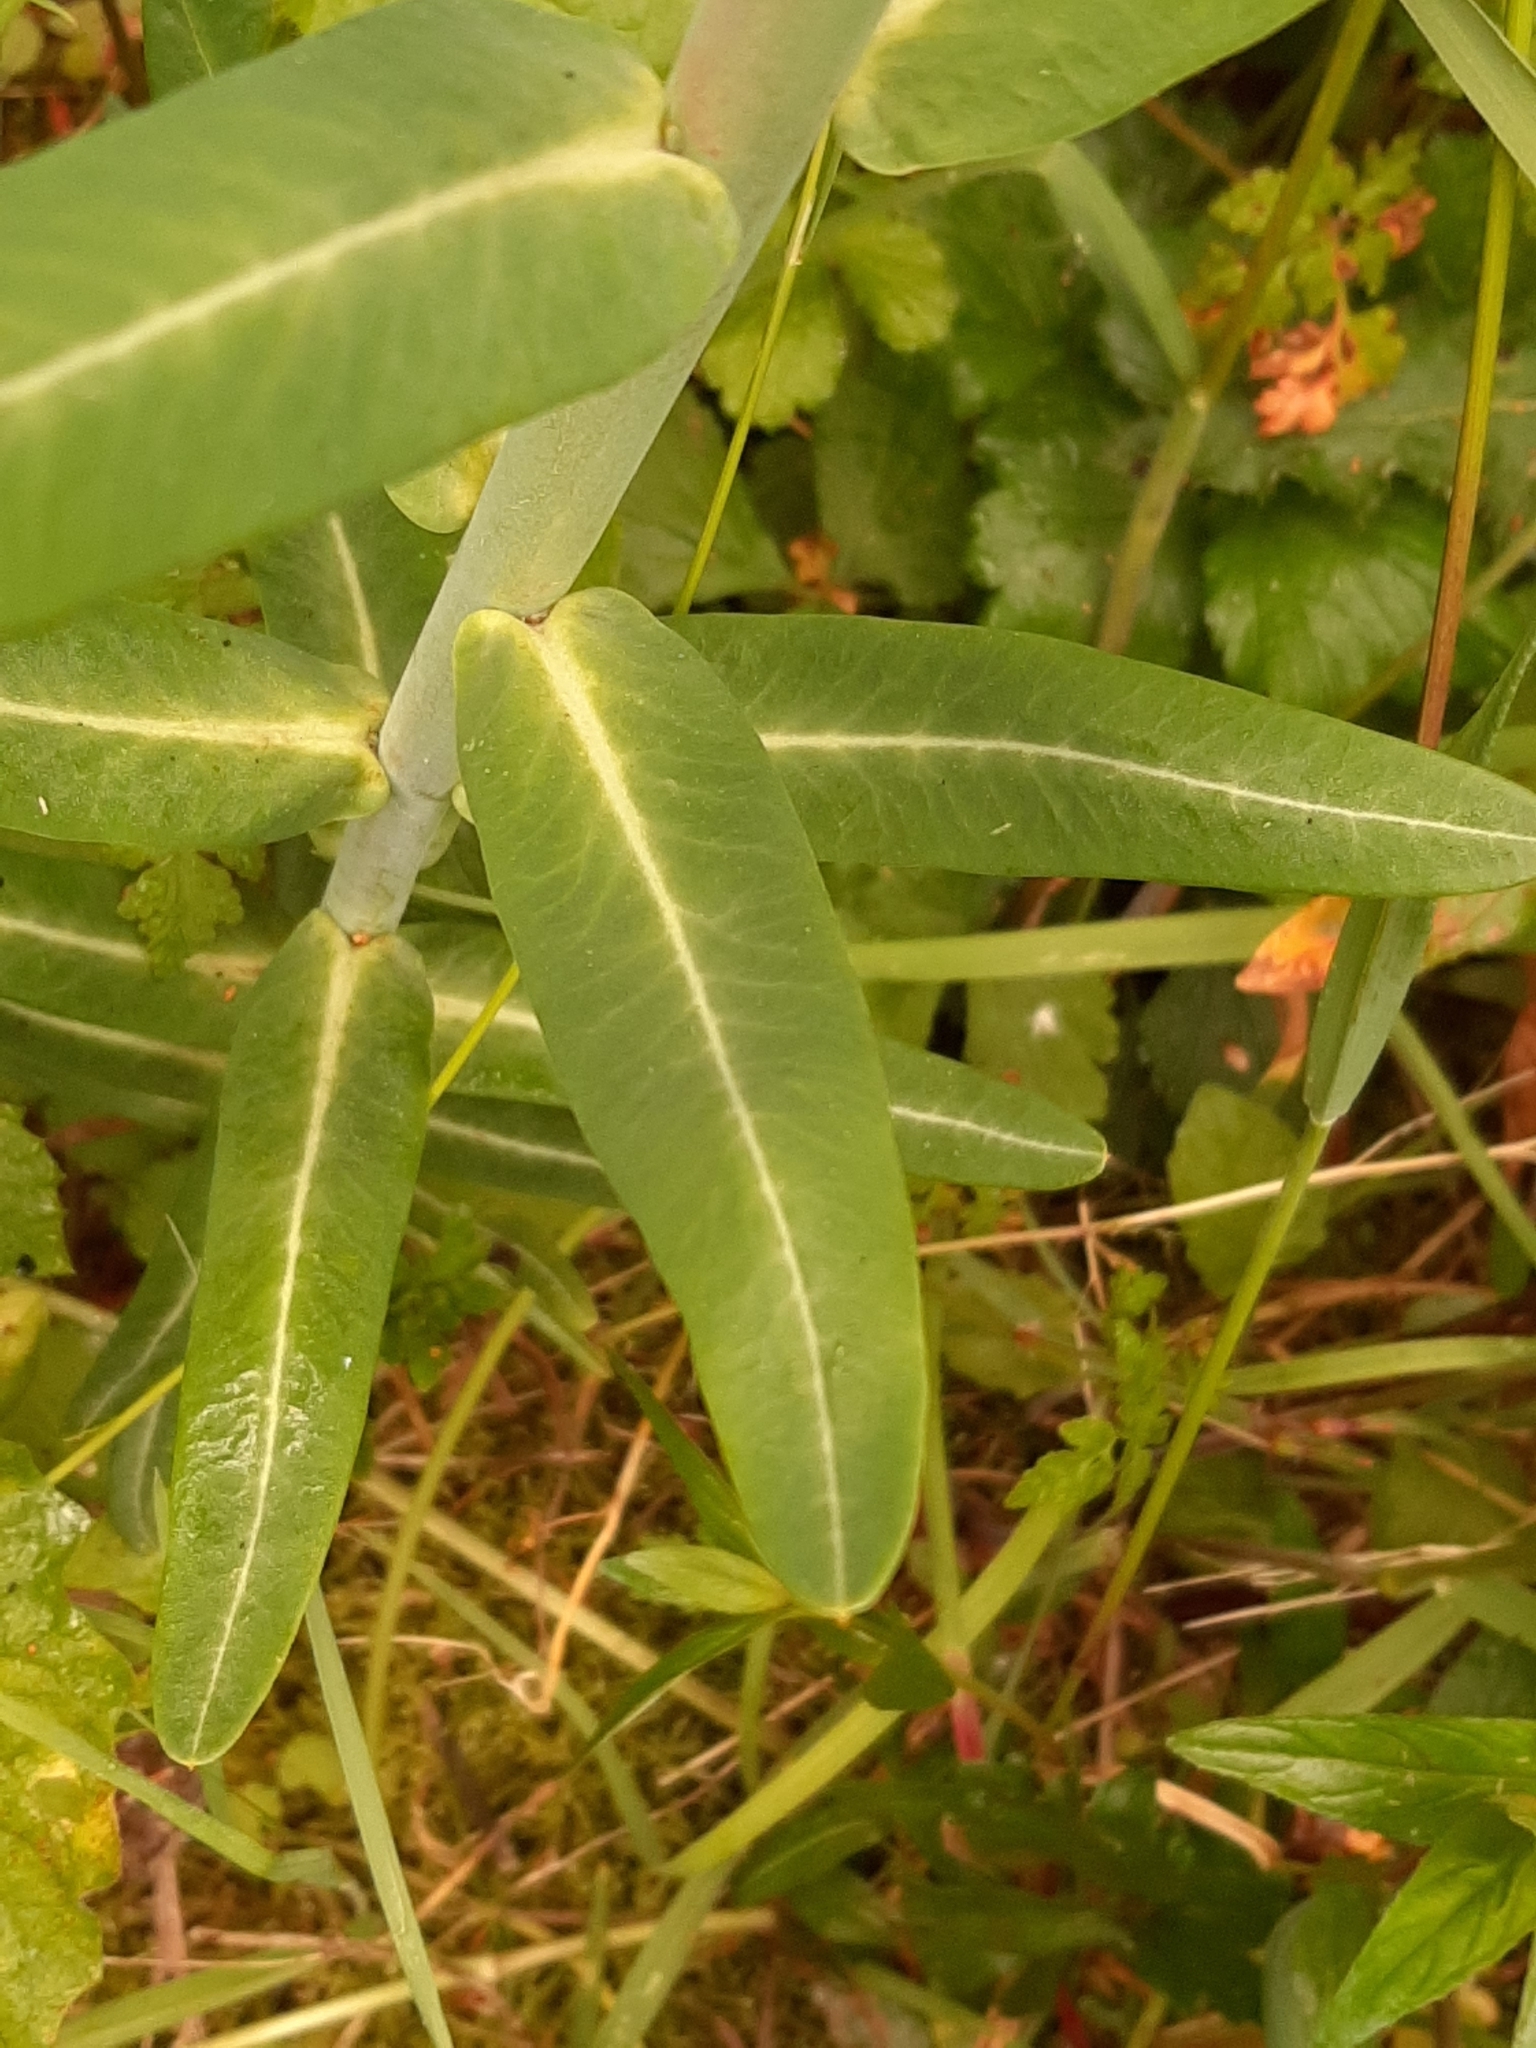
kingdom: Plantae
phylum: Tracheophyta
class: Magnoliopsida
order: Malpighiales
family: Euphorbiaceae
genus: Euphorbia
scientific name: Euphorbia lathyris
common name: Caper spurge
